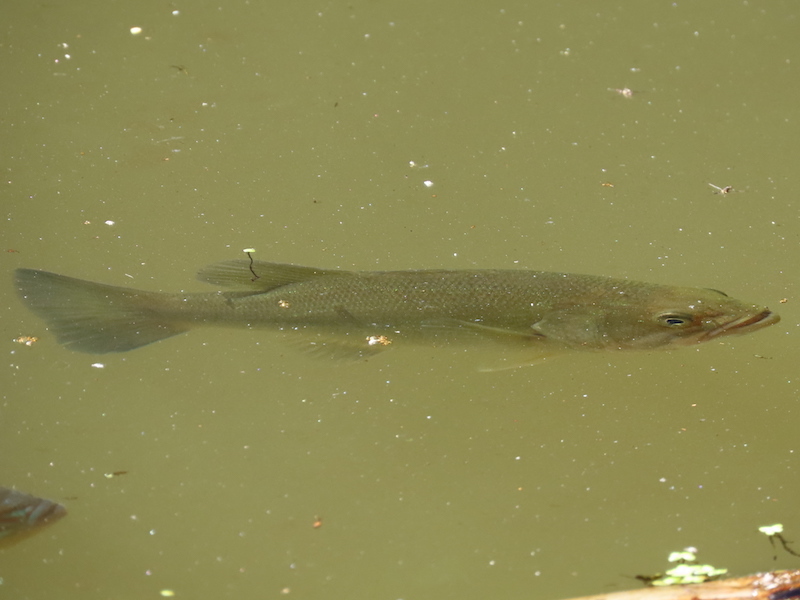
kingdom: Animalia
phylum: Chordata
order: Perciformes
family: Centrarchidae
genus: Micropterus
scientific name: Micropterus
